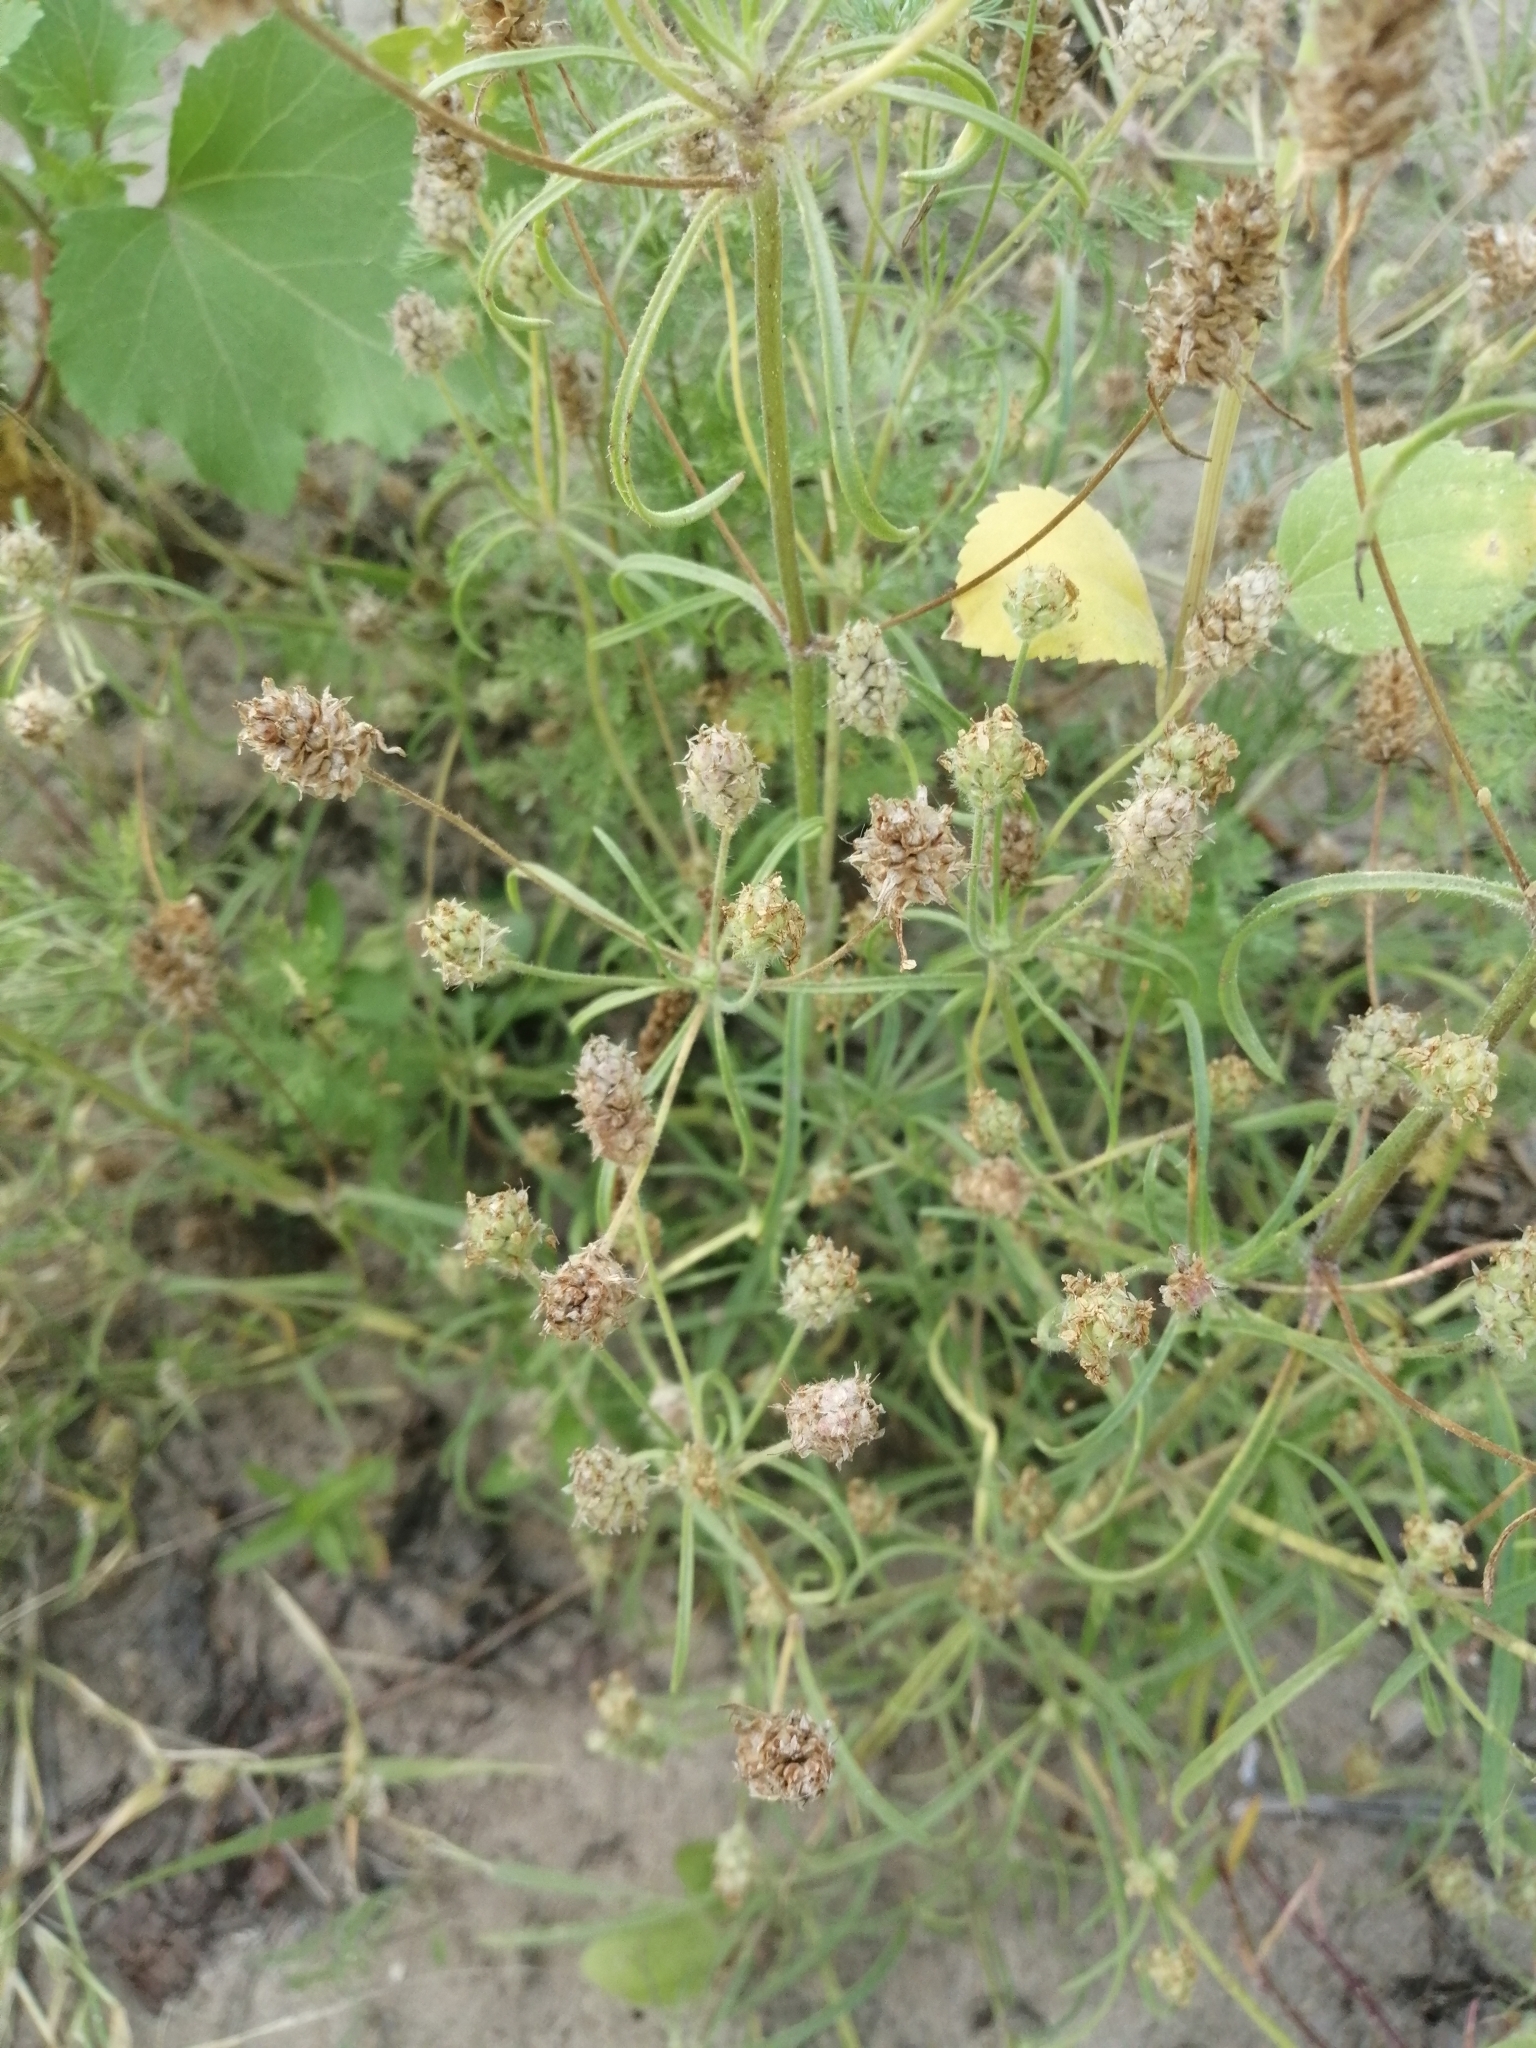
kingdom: Plantae
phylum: Tracheophyta
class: Magnoliopsida
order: Lamiales
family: Plantaginaceae
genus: Plantago
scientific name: Plantago arenaria
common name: Branched plantain
